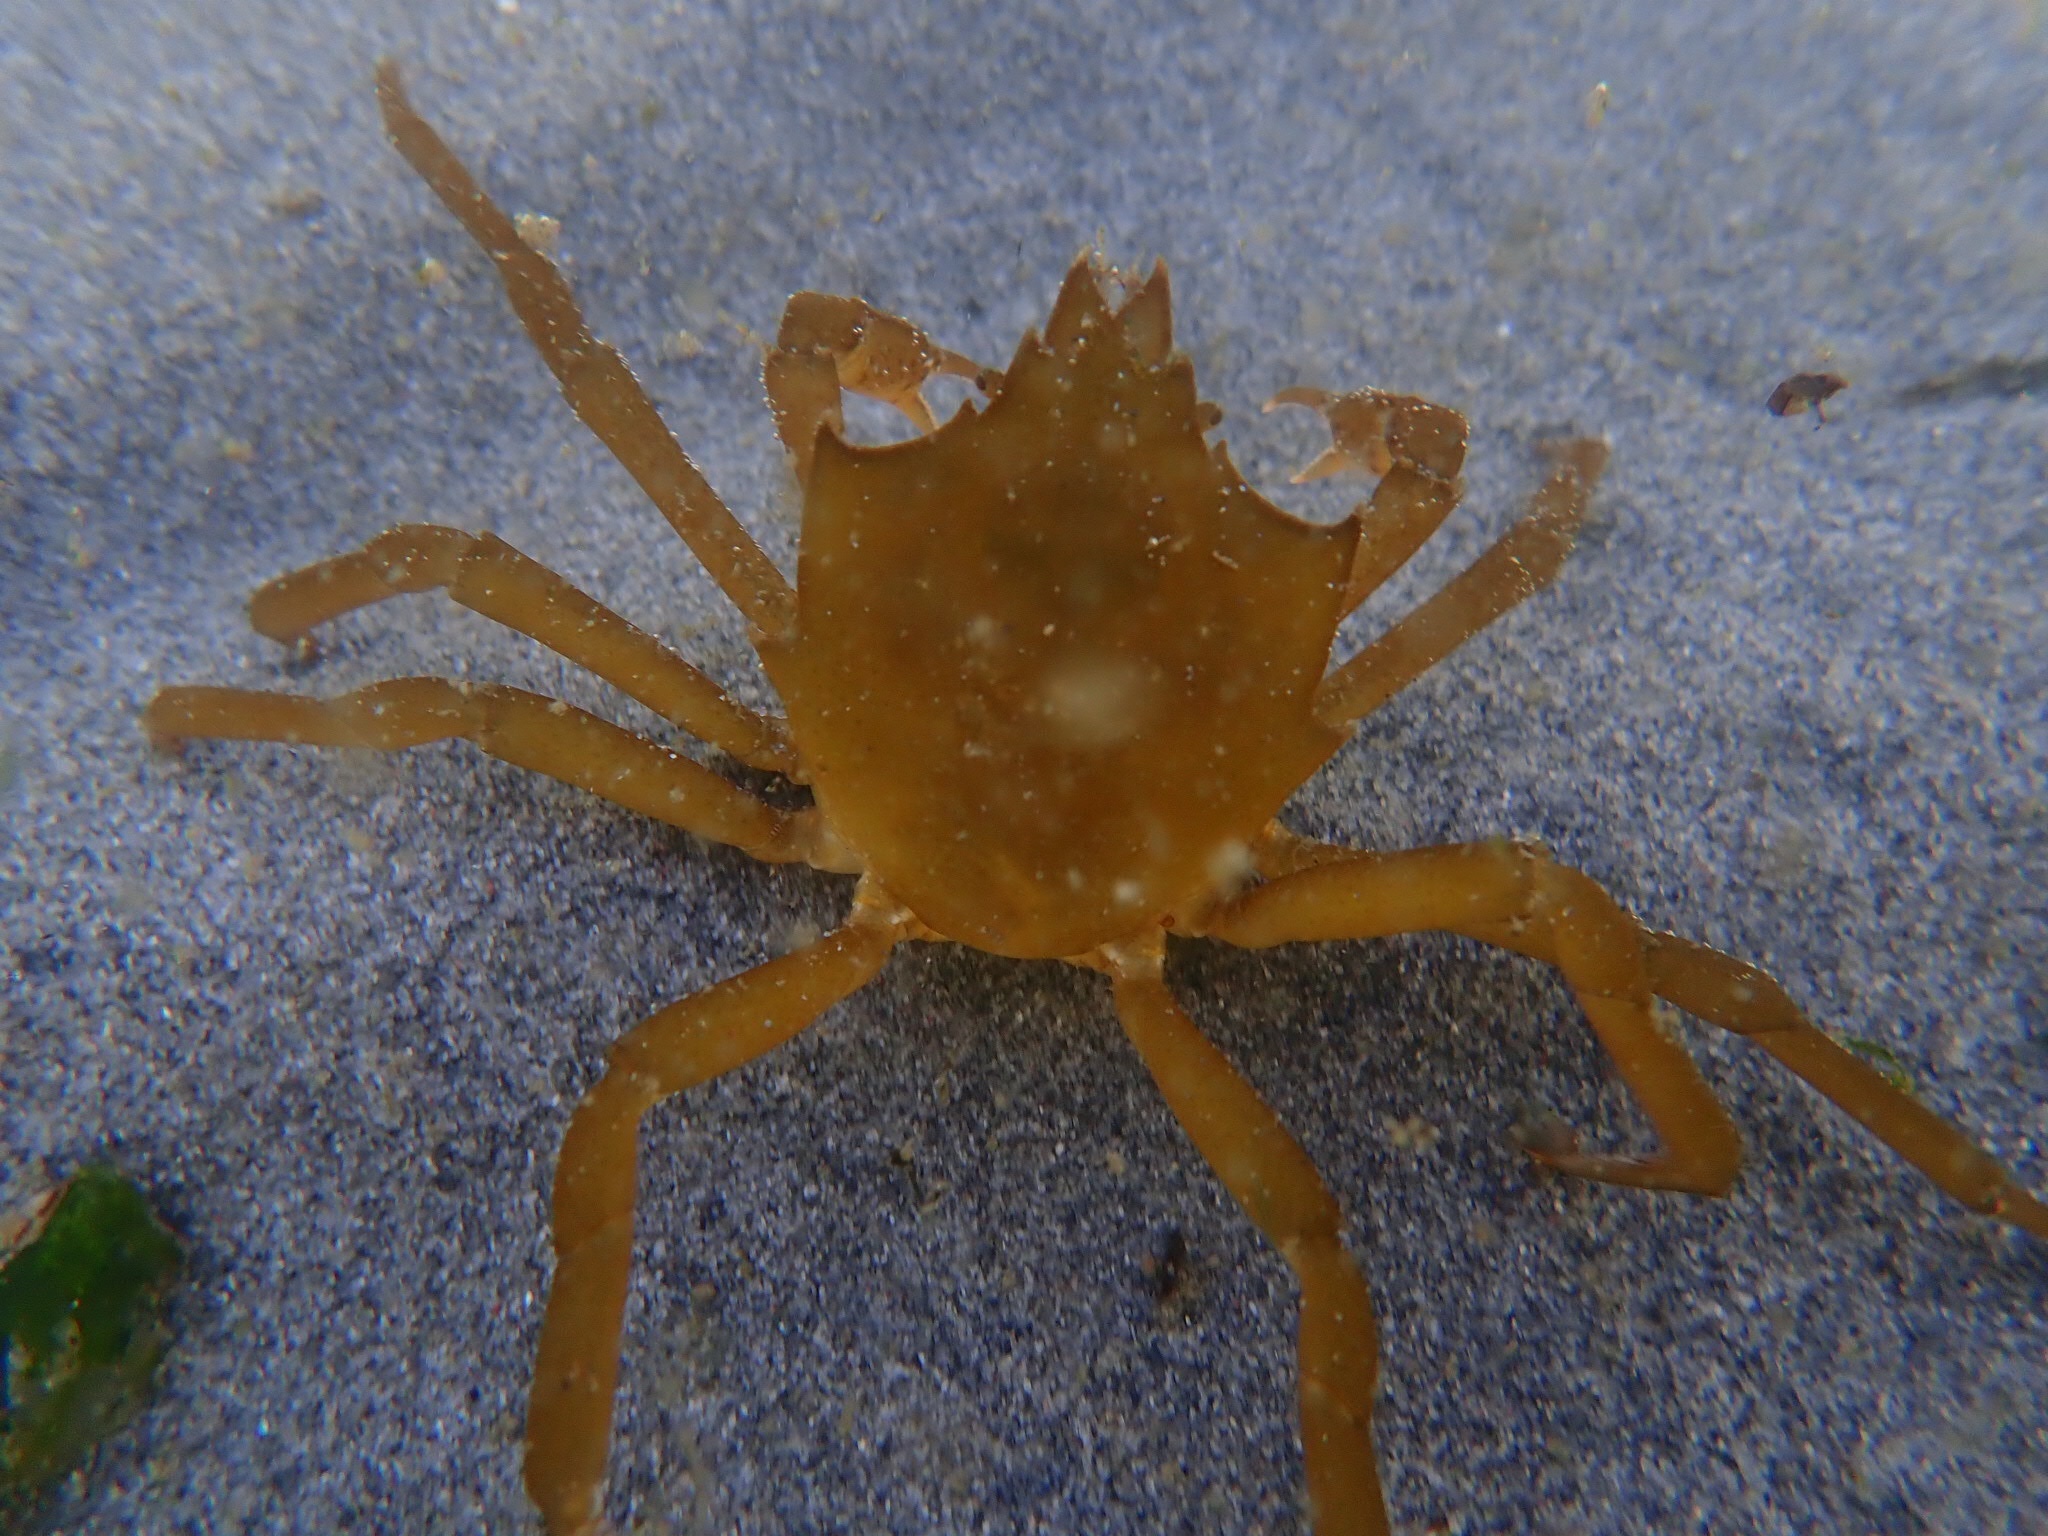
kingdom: Animalia
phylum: Arthropoda
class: Malacostraca
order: Decapoda
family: Epialtidae
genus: Pugettia
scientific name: Pugettia producta
